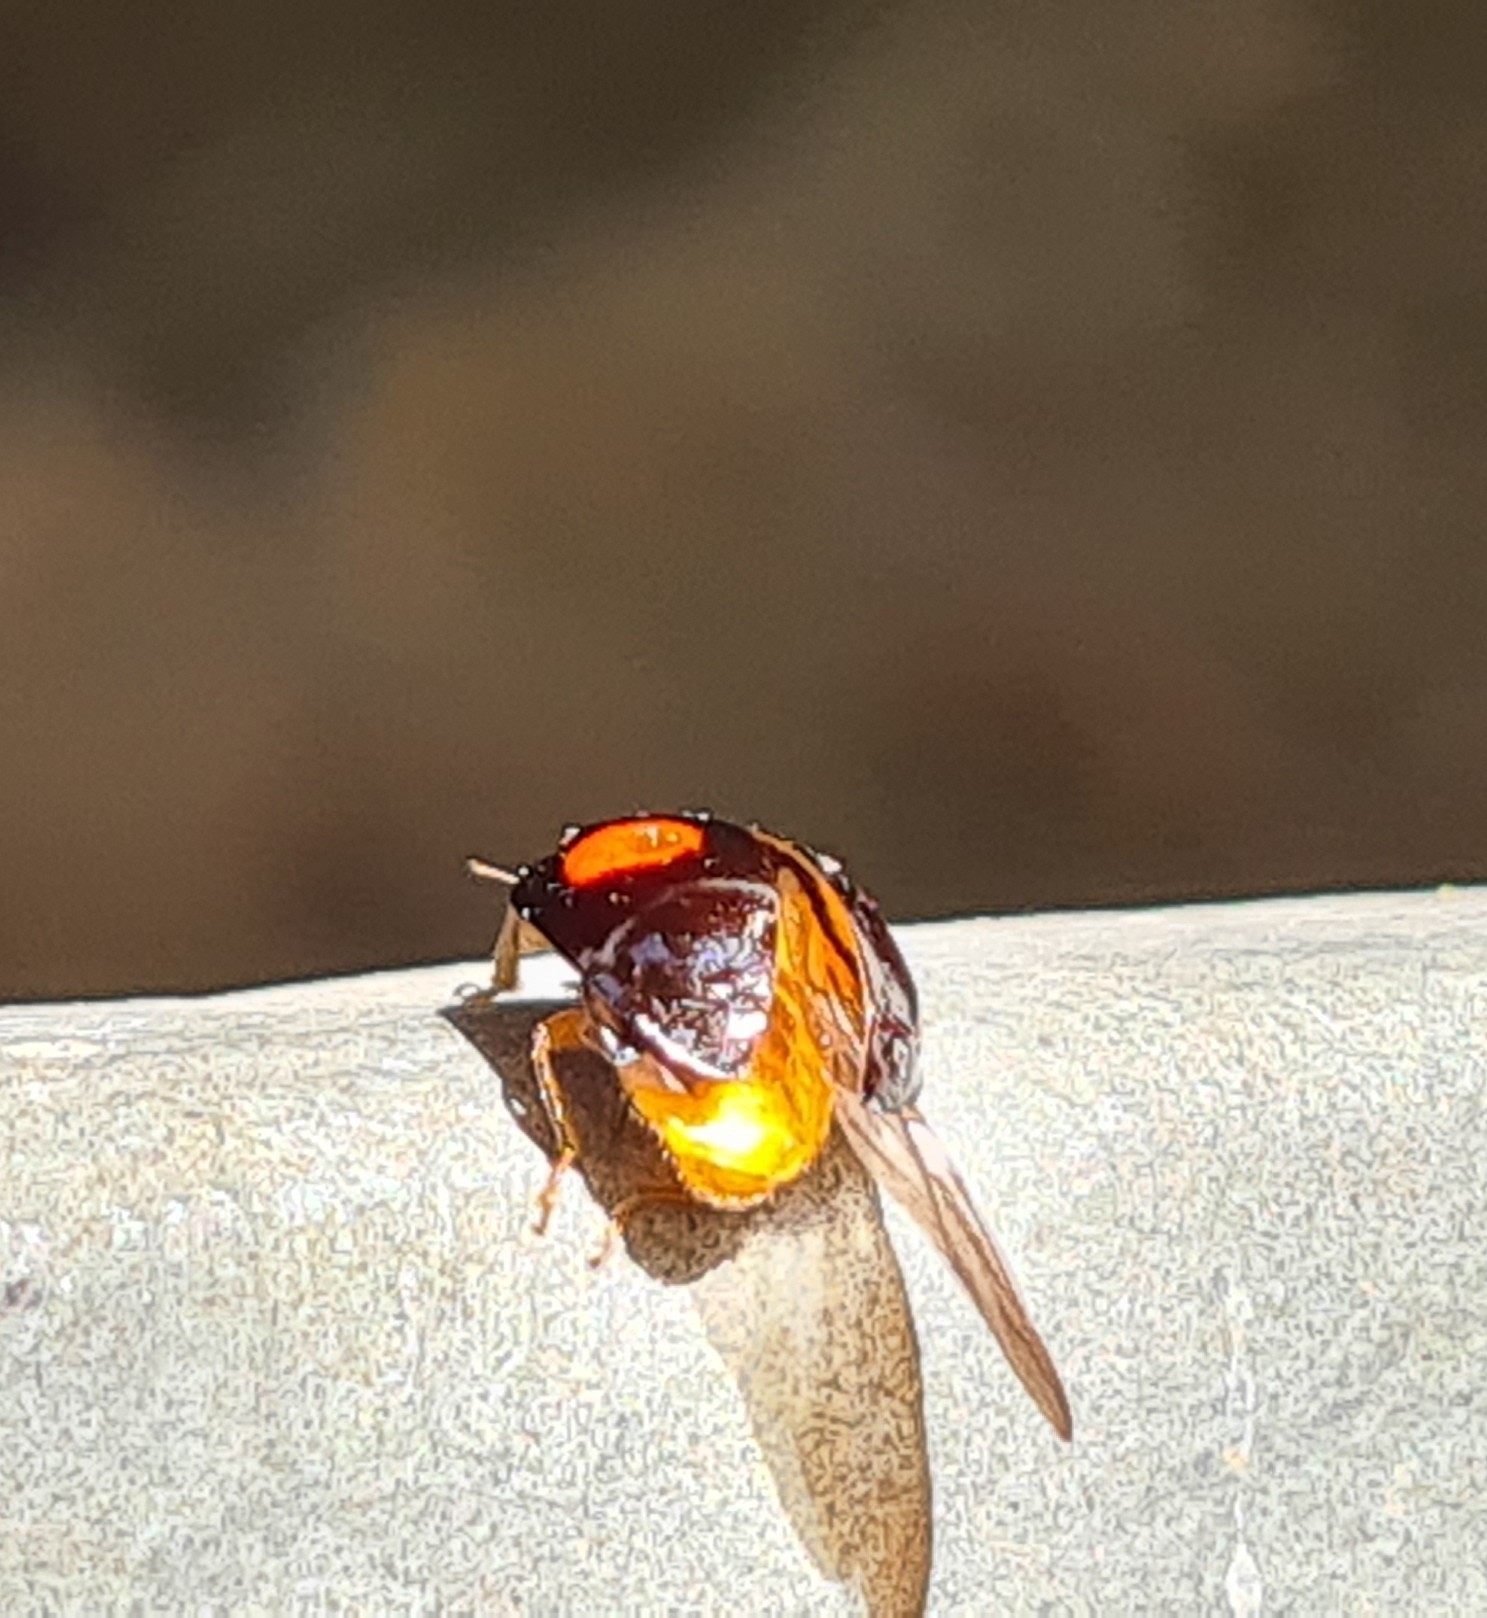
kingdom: Animalia
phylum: Arthropoda
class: Insecta
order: Coleoptera
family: Coccinellidae
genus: Harmonia
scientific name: Harmonia axyridis
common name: Harlequin ladybird
